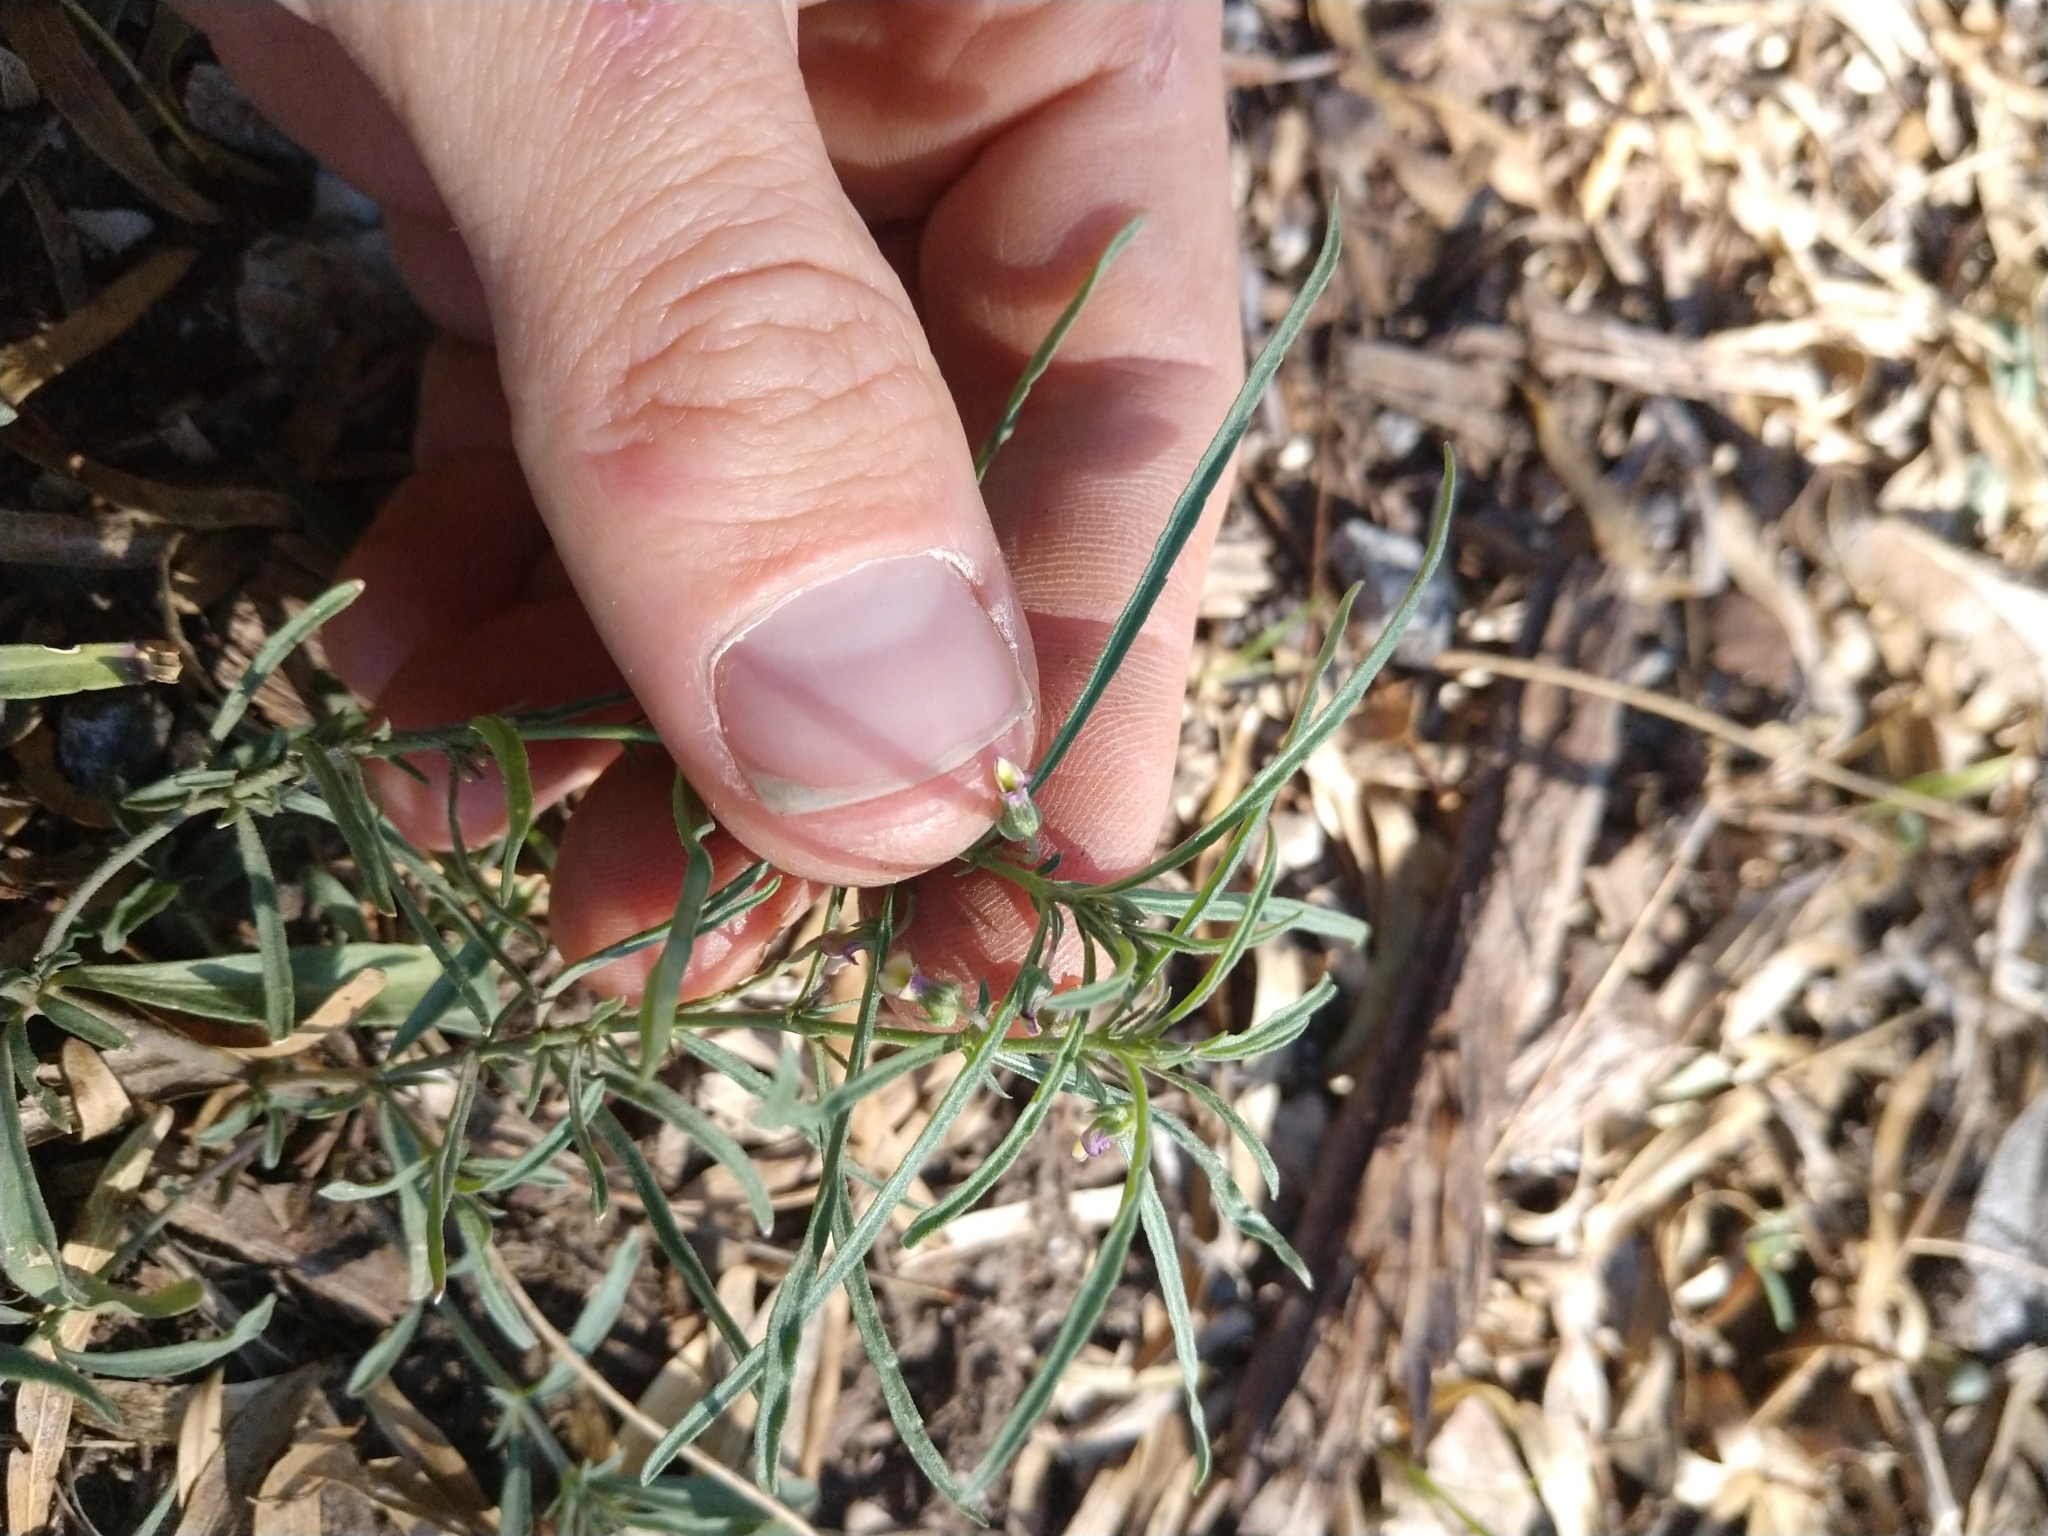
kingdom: Plantae
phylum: Tracheophyta
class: Magnoliopsida
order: Malpighiales
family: Violaceae
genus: Pombalia
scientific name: Pombalia verticillata
